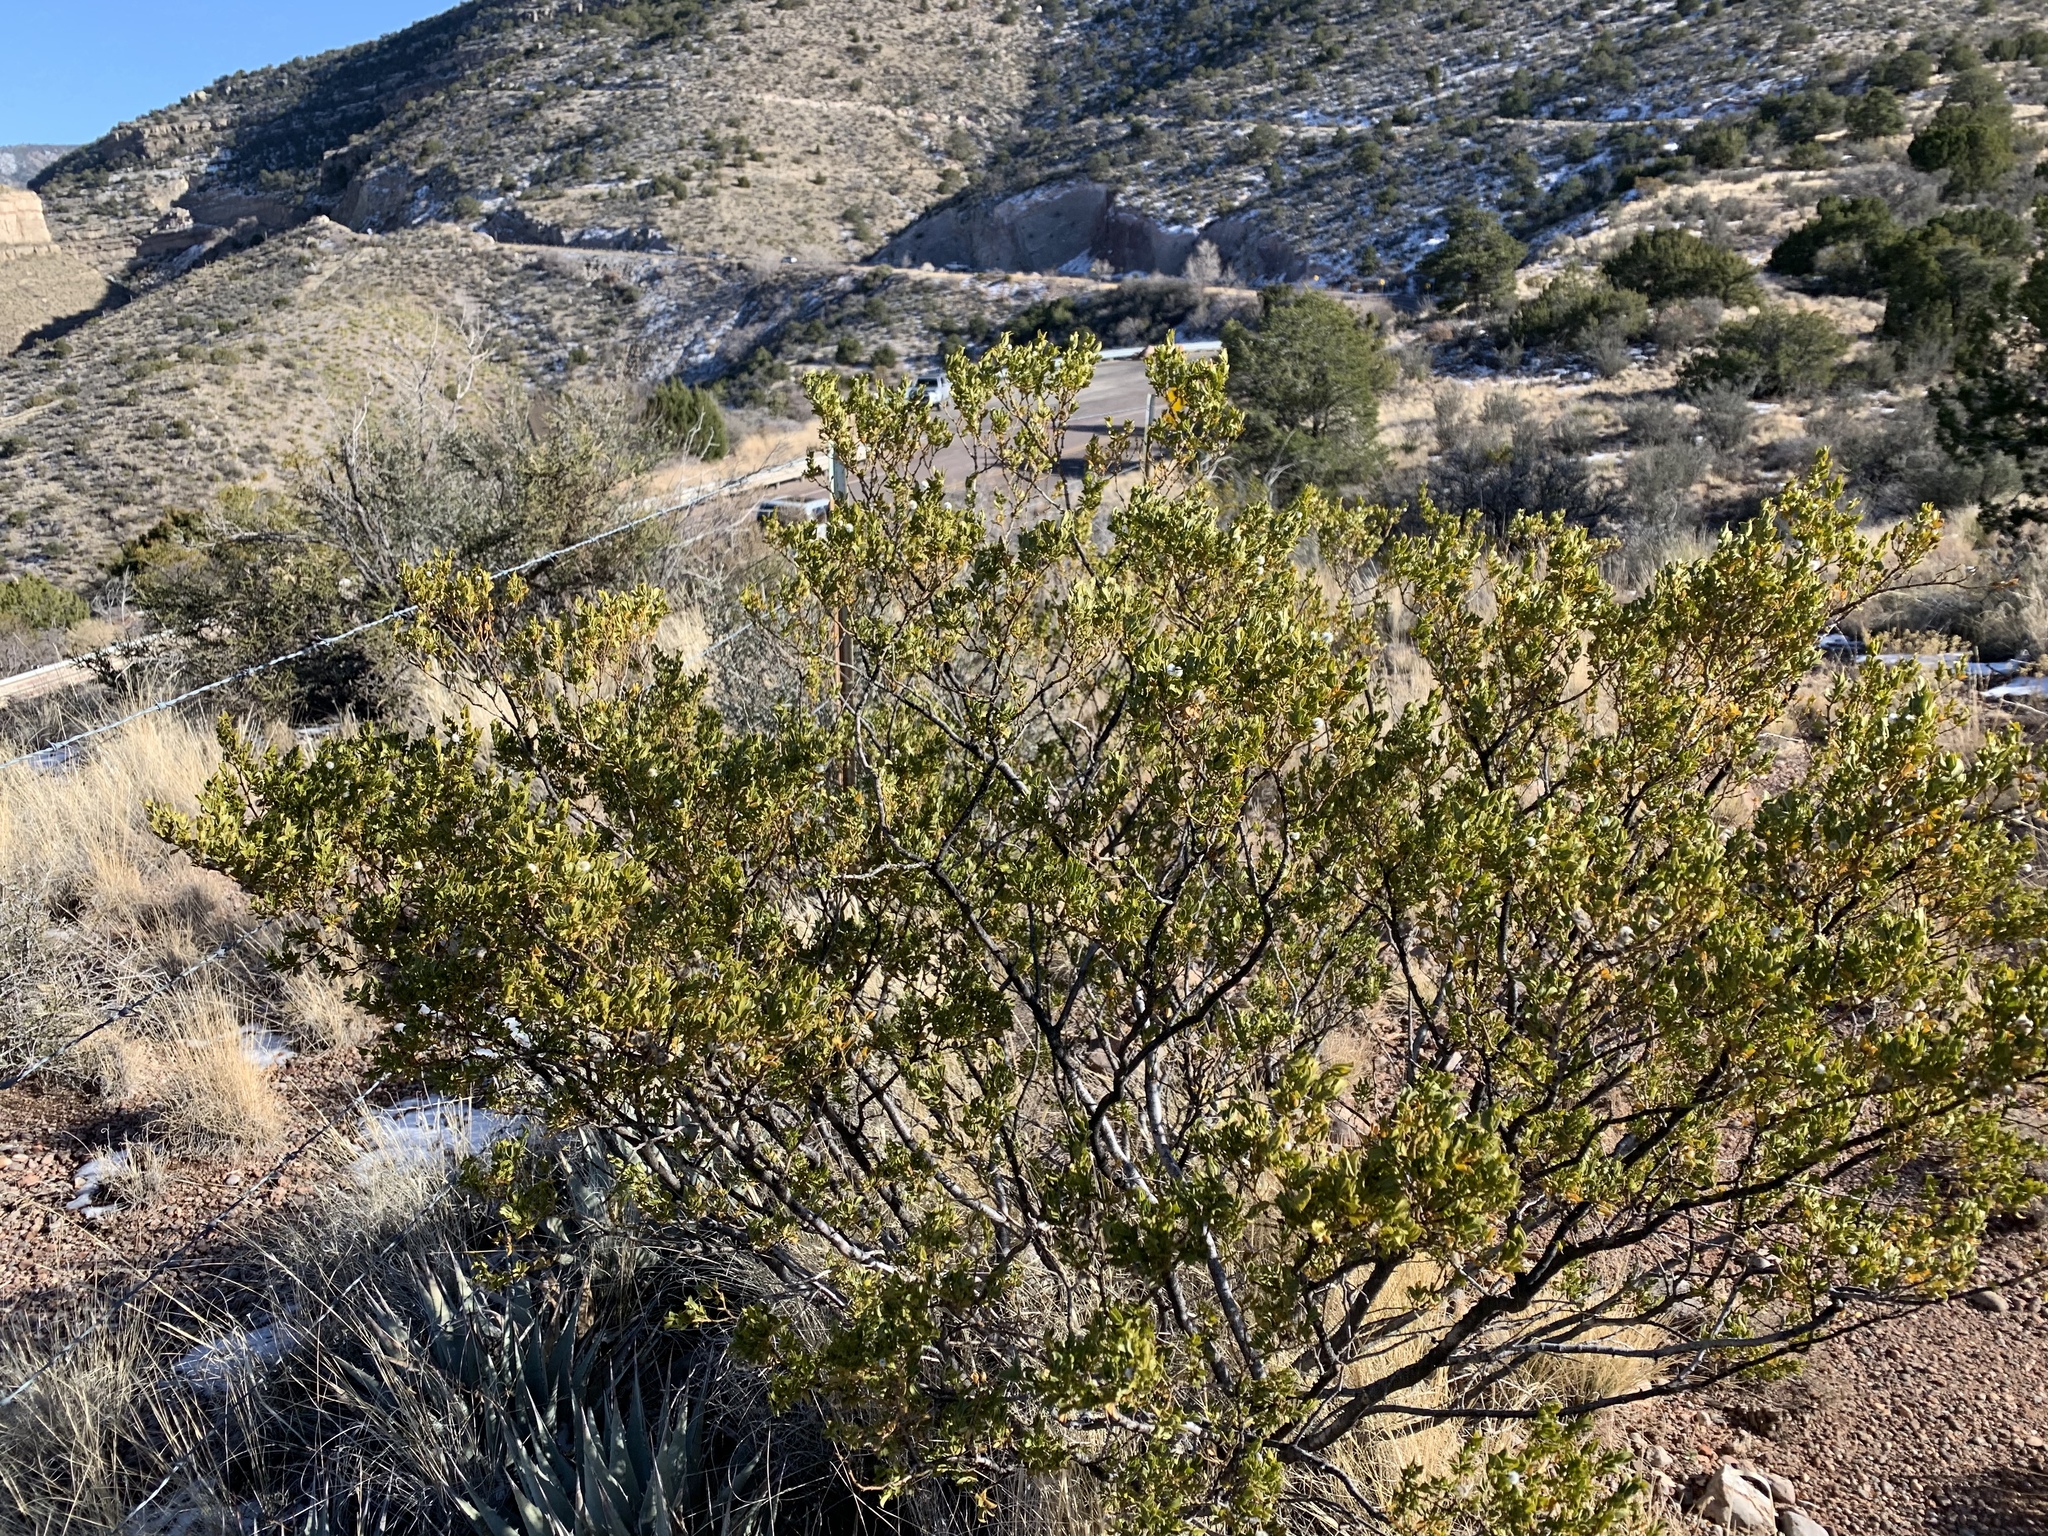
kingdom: Plantae
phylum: Tracheophyta
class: Magnoliopsida
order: Zygophyllales
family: Zygophyllaceae
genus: Larrea
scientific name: Larrea tridentata
